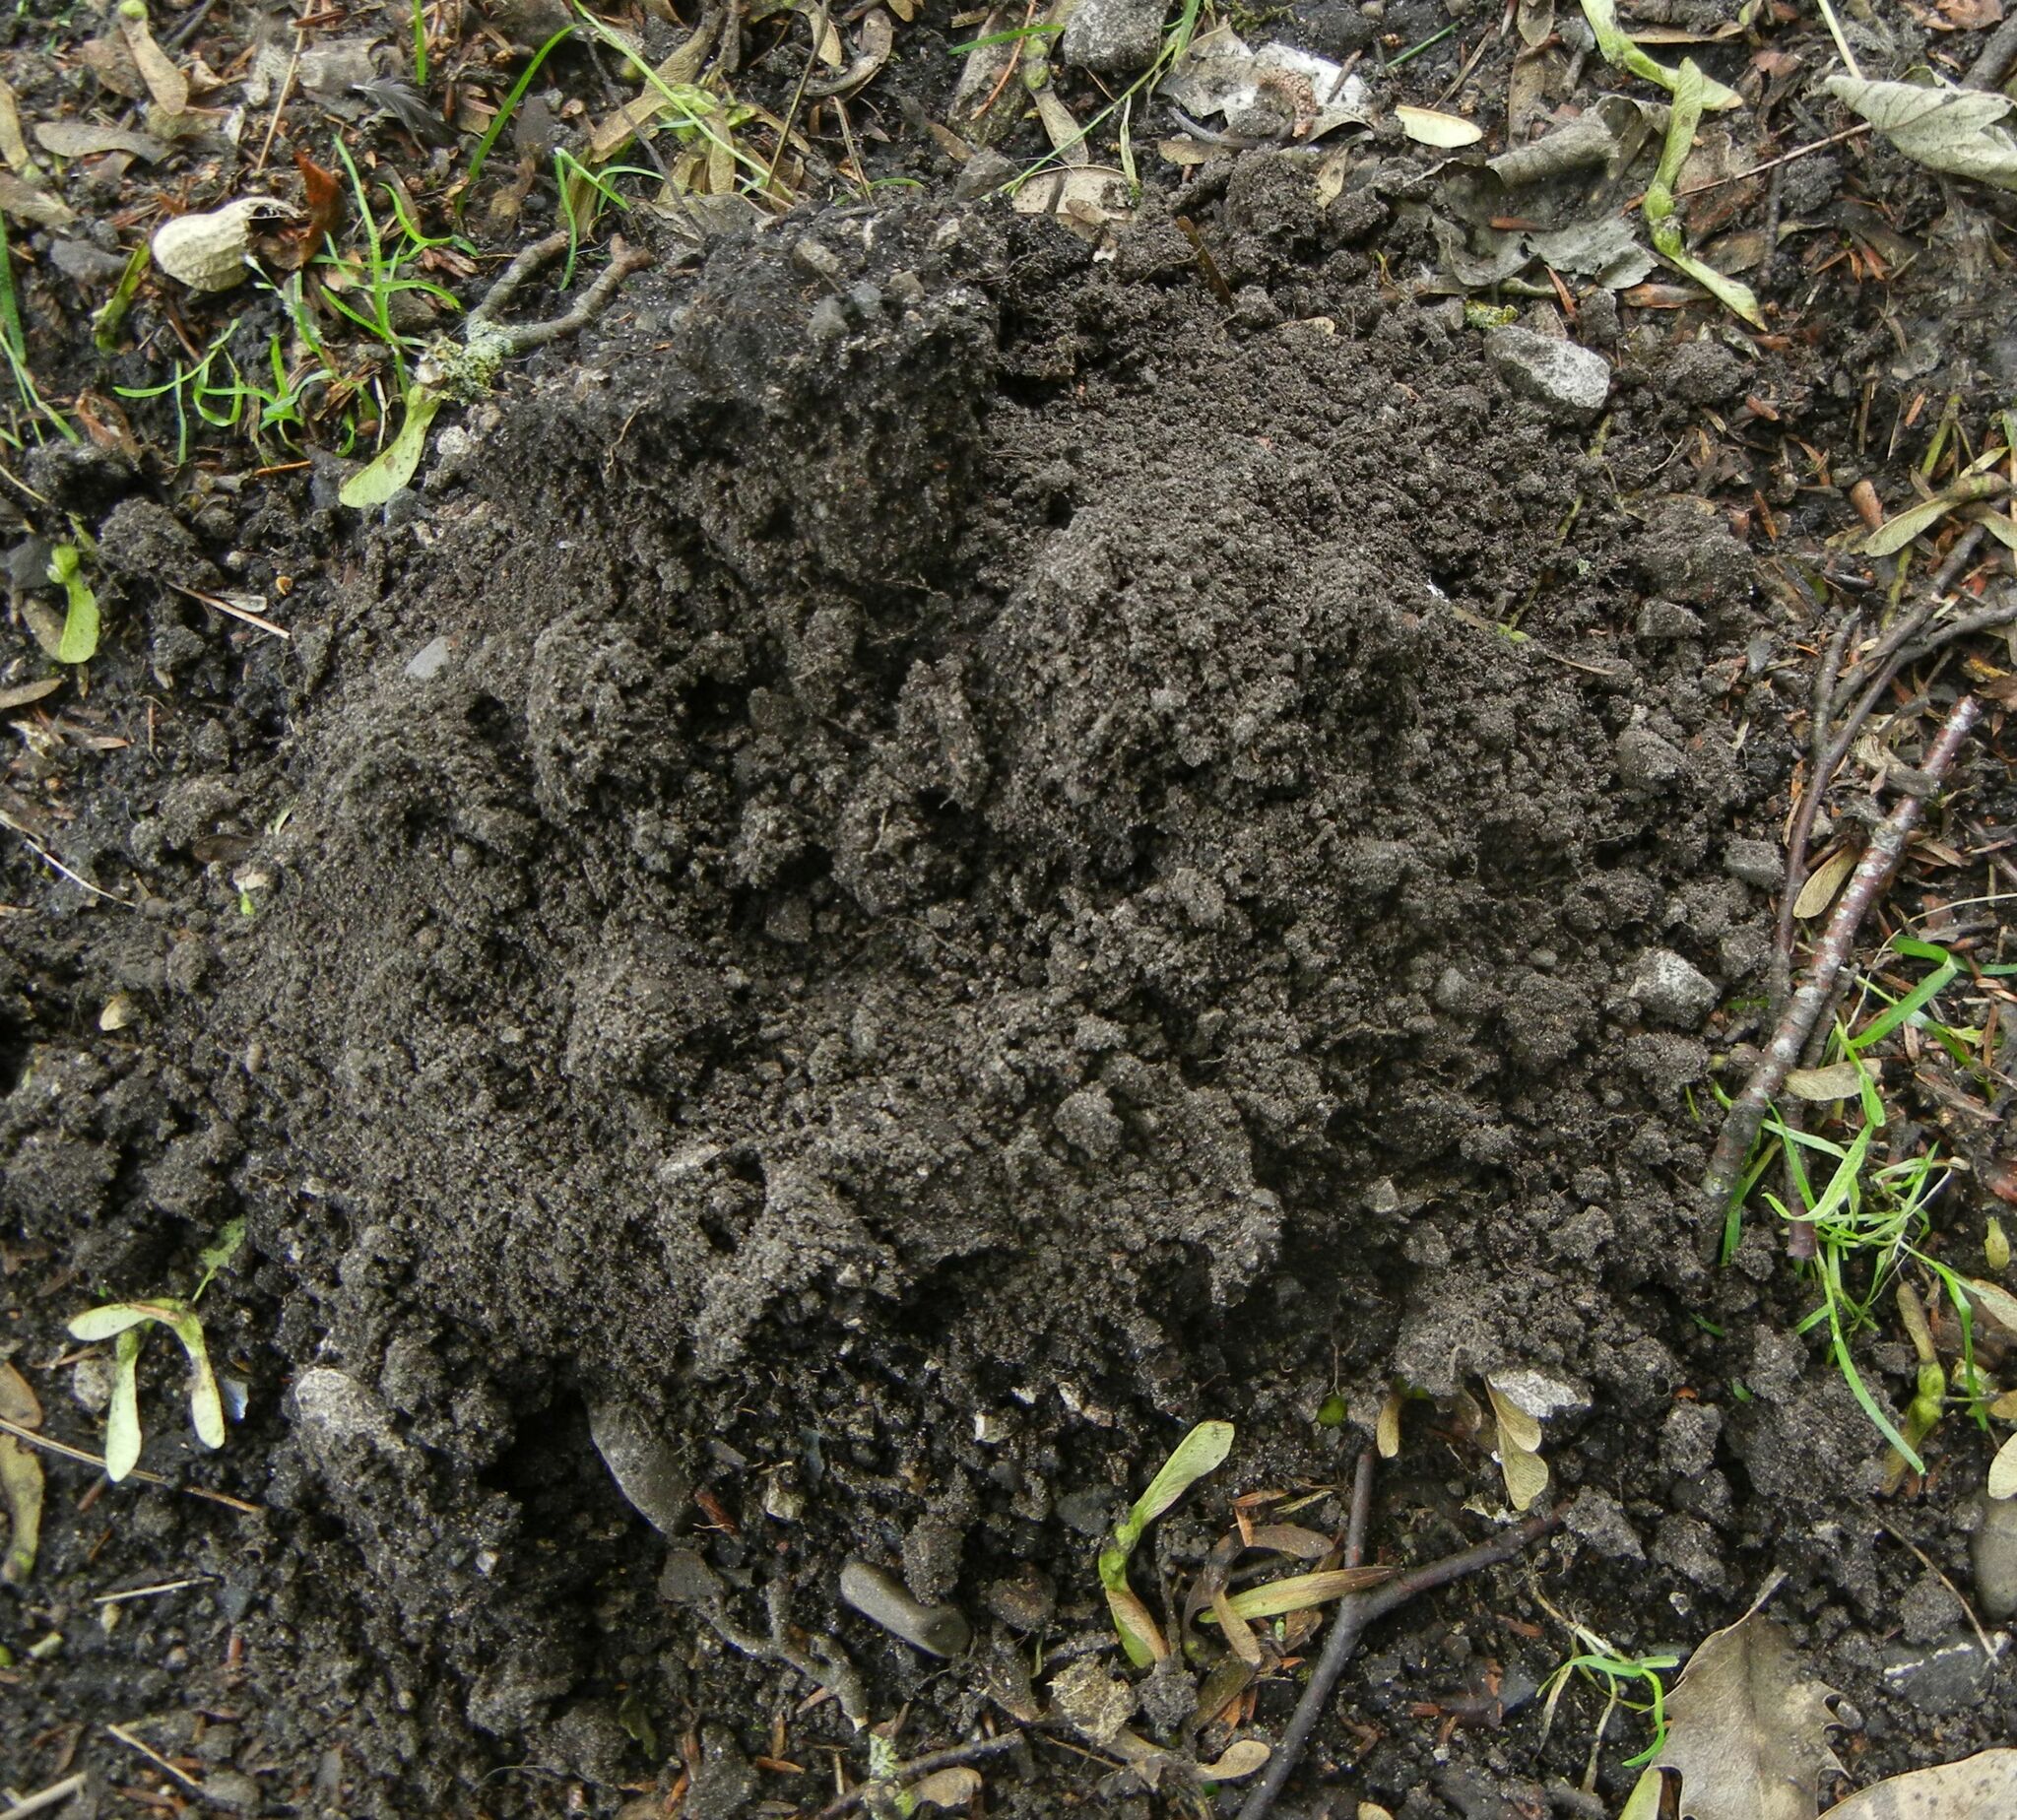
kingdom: Animalia
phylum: Chordata
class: Mammalia
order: Soricomorpha
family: Talpidae
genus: Talpa
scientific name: Talpa europaea
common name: European mole
